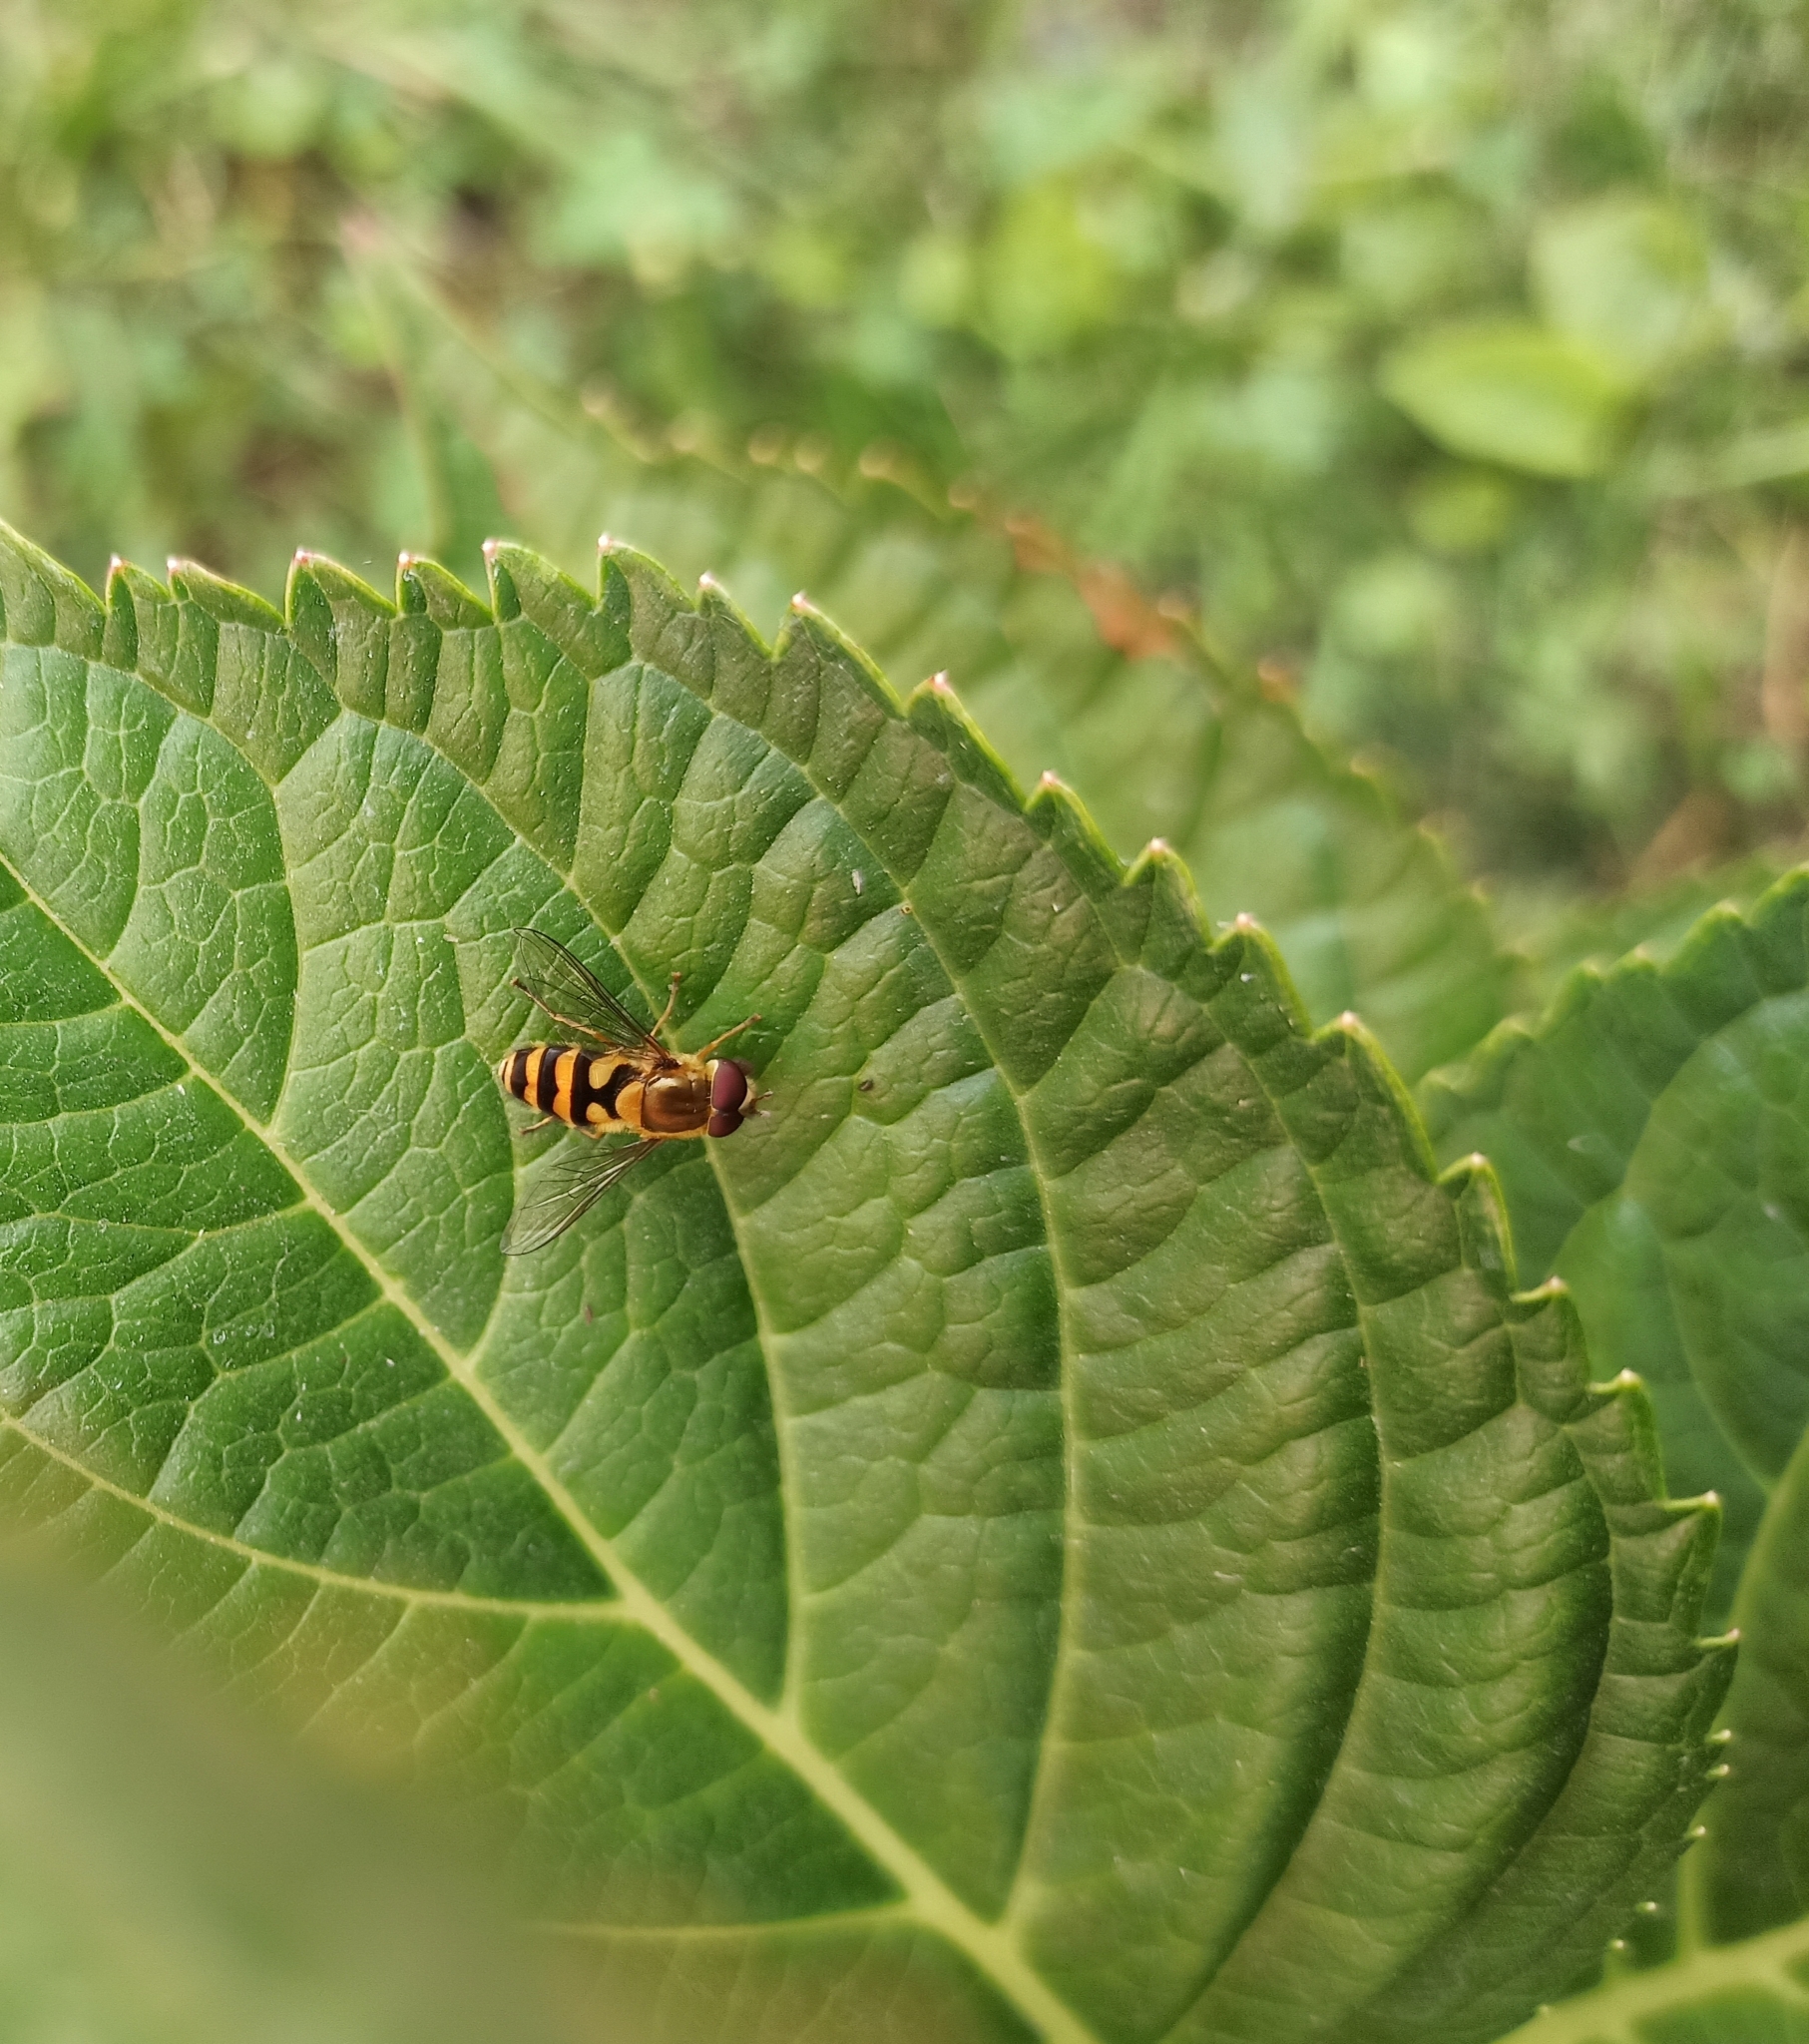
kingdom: Animalia
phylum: Arthropoda
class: Insecta
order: Diptera
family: Syrphidae
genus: Syrphus
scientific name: Syrphus
